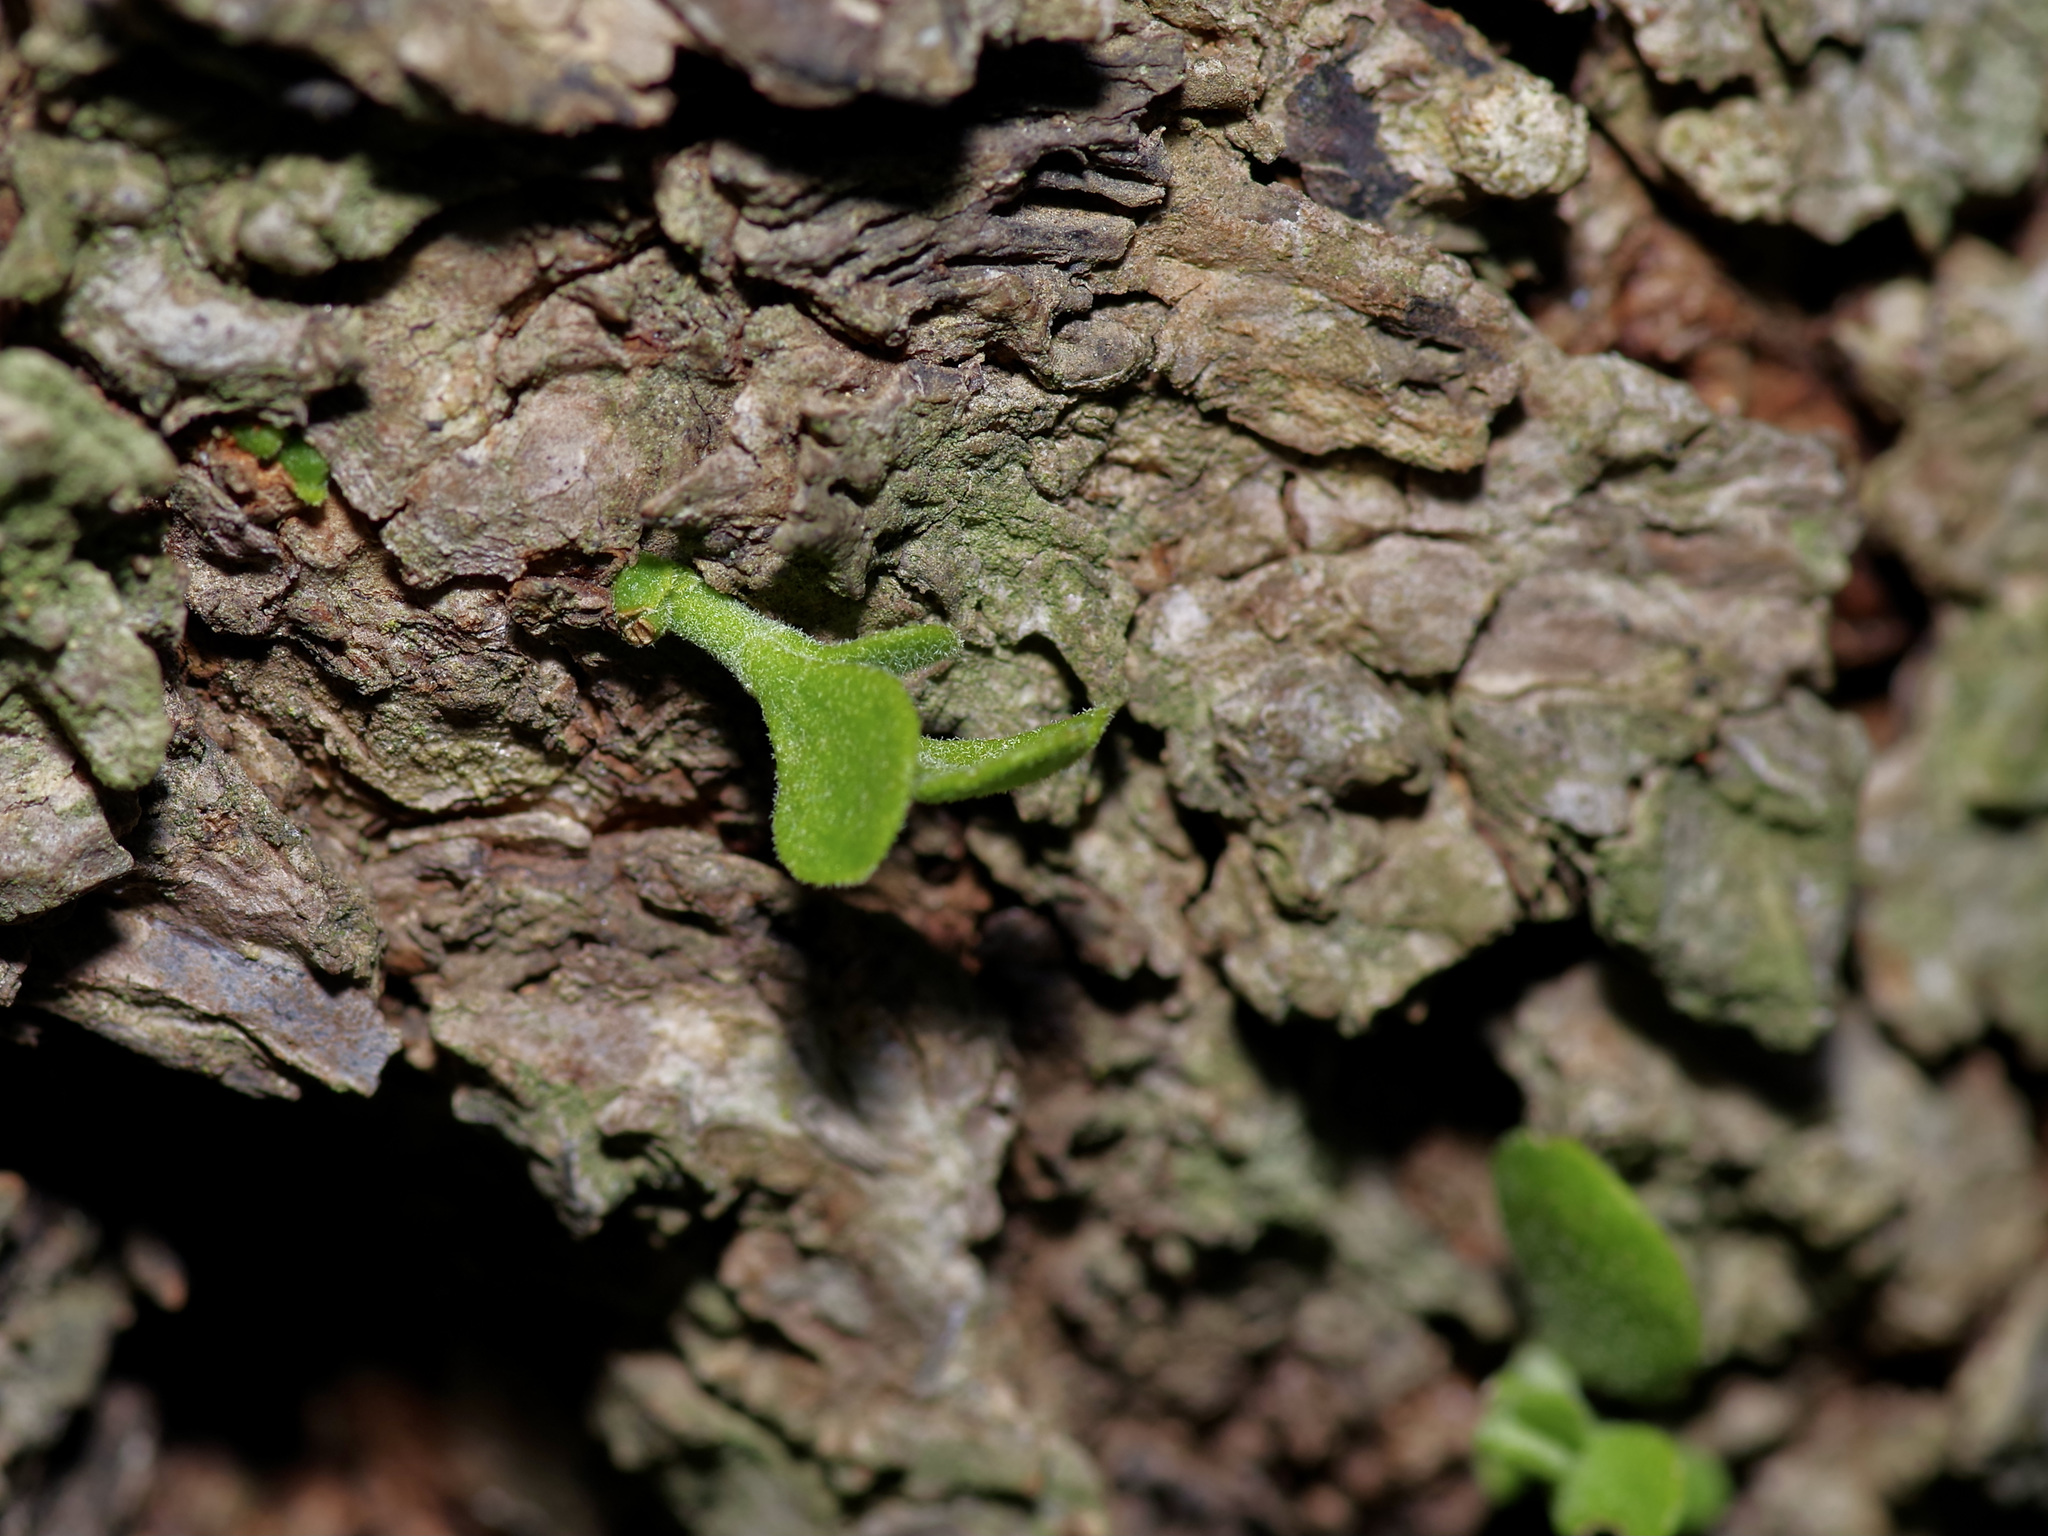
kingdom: Plantae
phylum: Tracheophyta
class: Magnoliopsida
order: Santalales
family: Viscaceae
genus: Phoradendron
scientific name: Phoradendron leucarpum
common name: Pacific mistletoe
